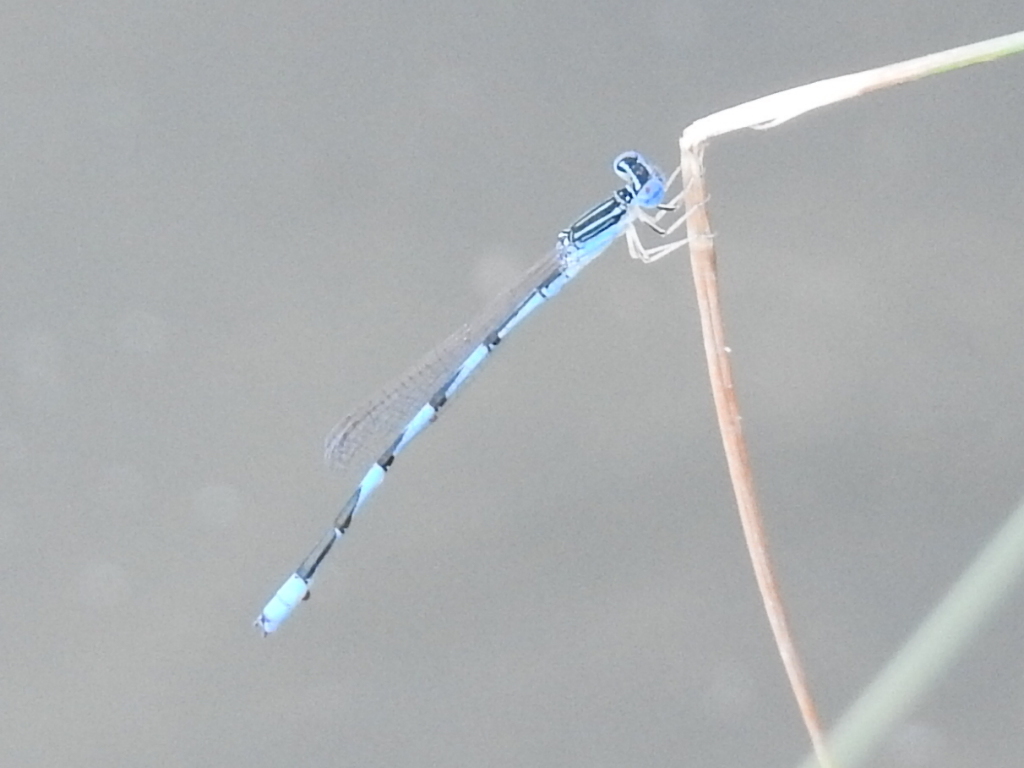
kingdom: Animalia
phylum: Arthropoda
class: Insecta
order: Odonata
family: Coenagrionidae
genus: Enallagma
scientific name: Enallagma basidens
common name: Double-striped bluet
